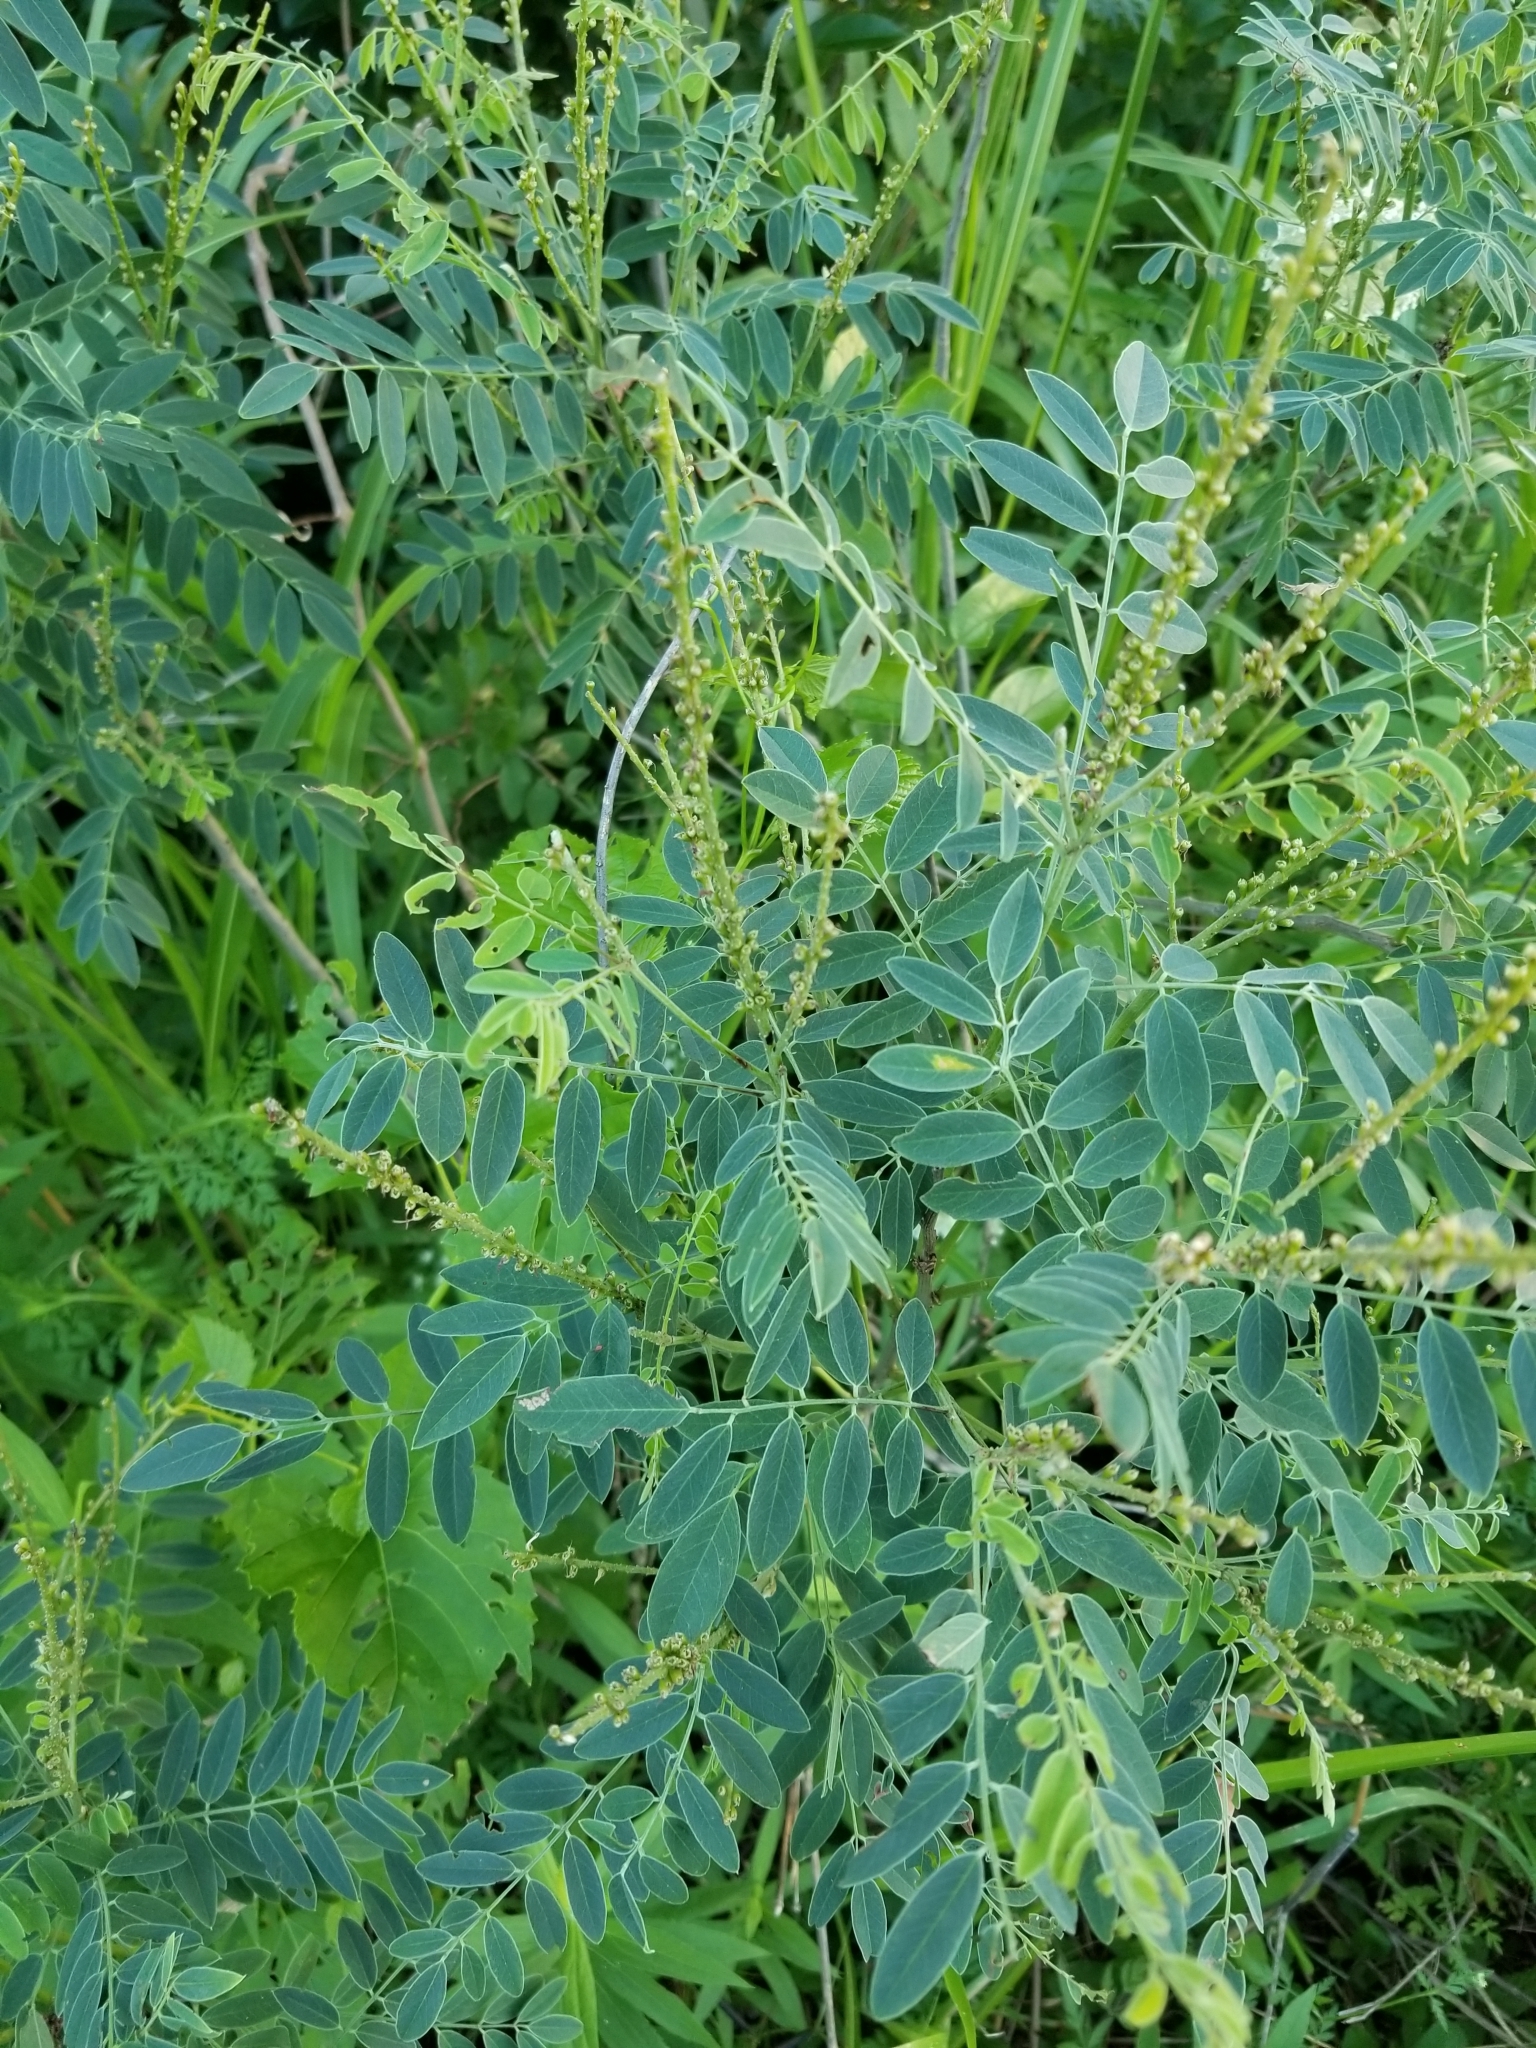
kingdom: Plantae
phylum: Tracheophyta
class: Magnoliopsida
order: Fabales
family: Fabaceae
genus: Amorpha
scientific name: Amorpha fruticosa
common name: False indigo
